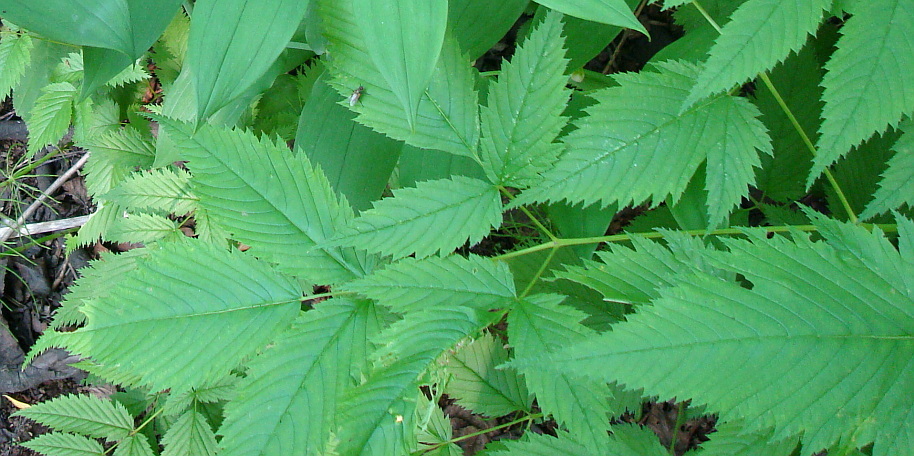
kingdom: Plantae
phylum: Tracheophyta
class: Magnoliopsida
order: Rosales
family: Rosaceae
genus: Aruncus
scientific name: Aruncus dioicus
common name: Buck's-beard
